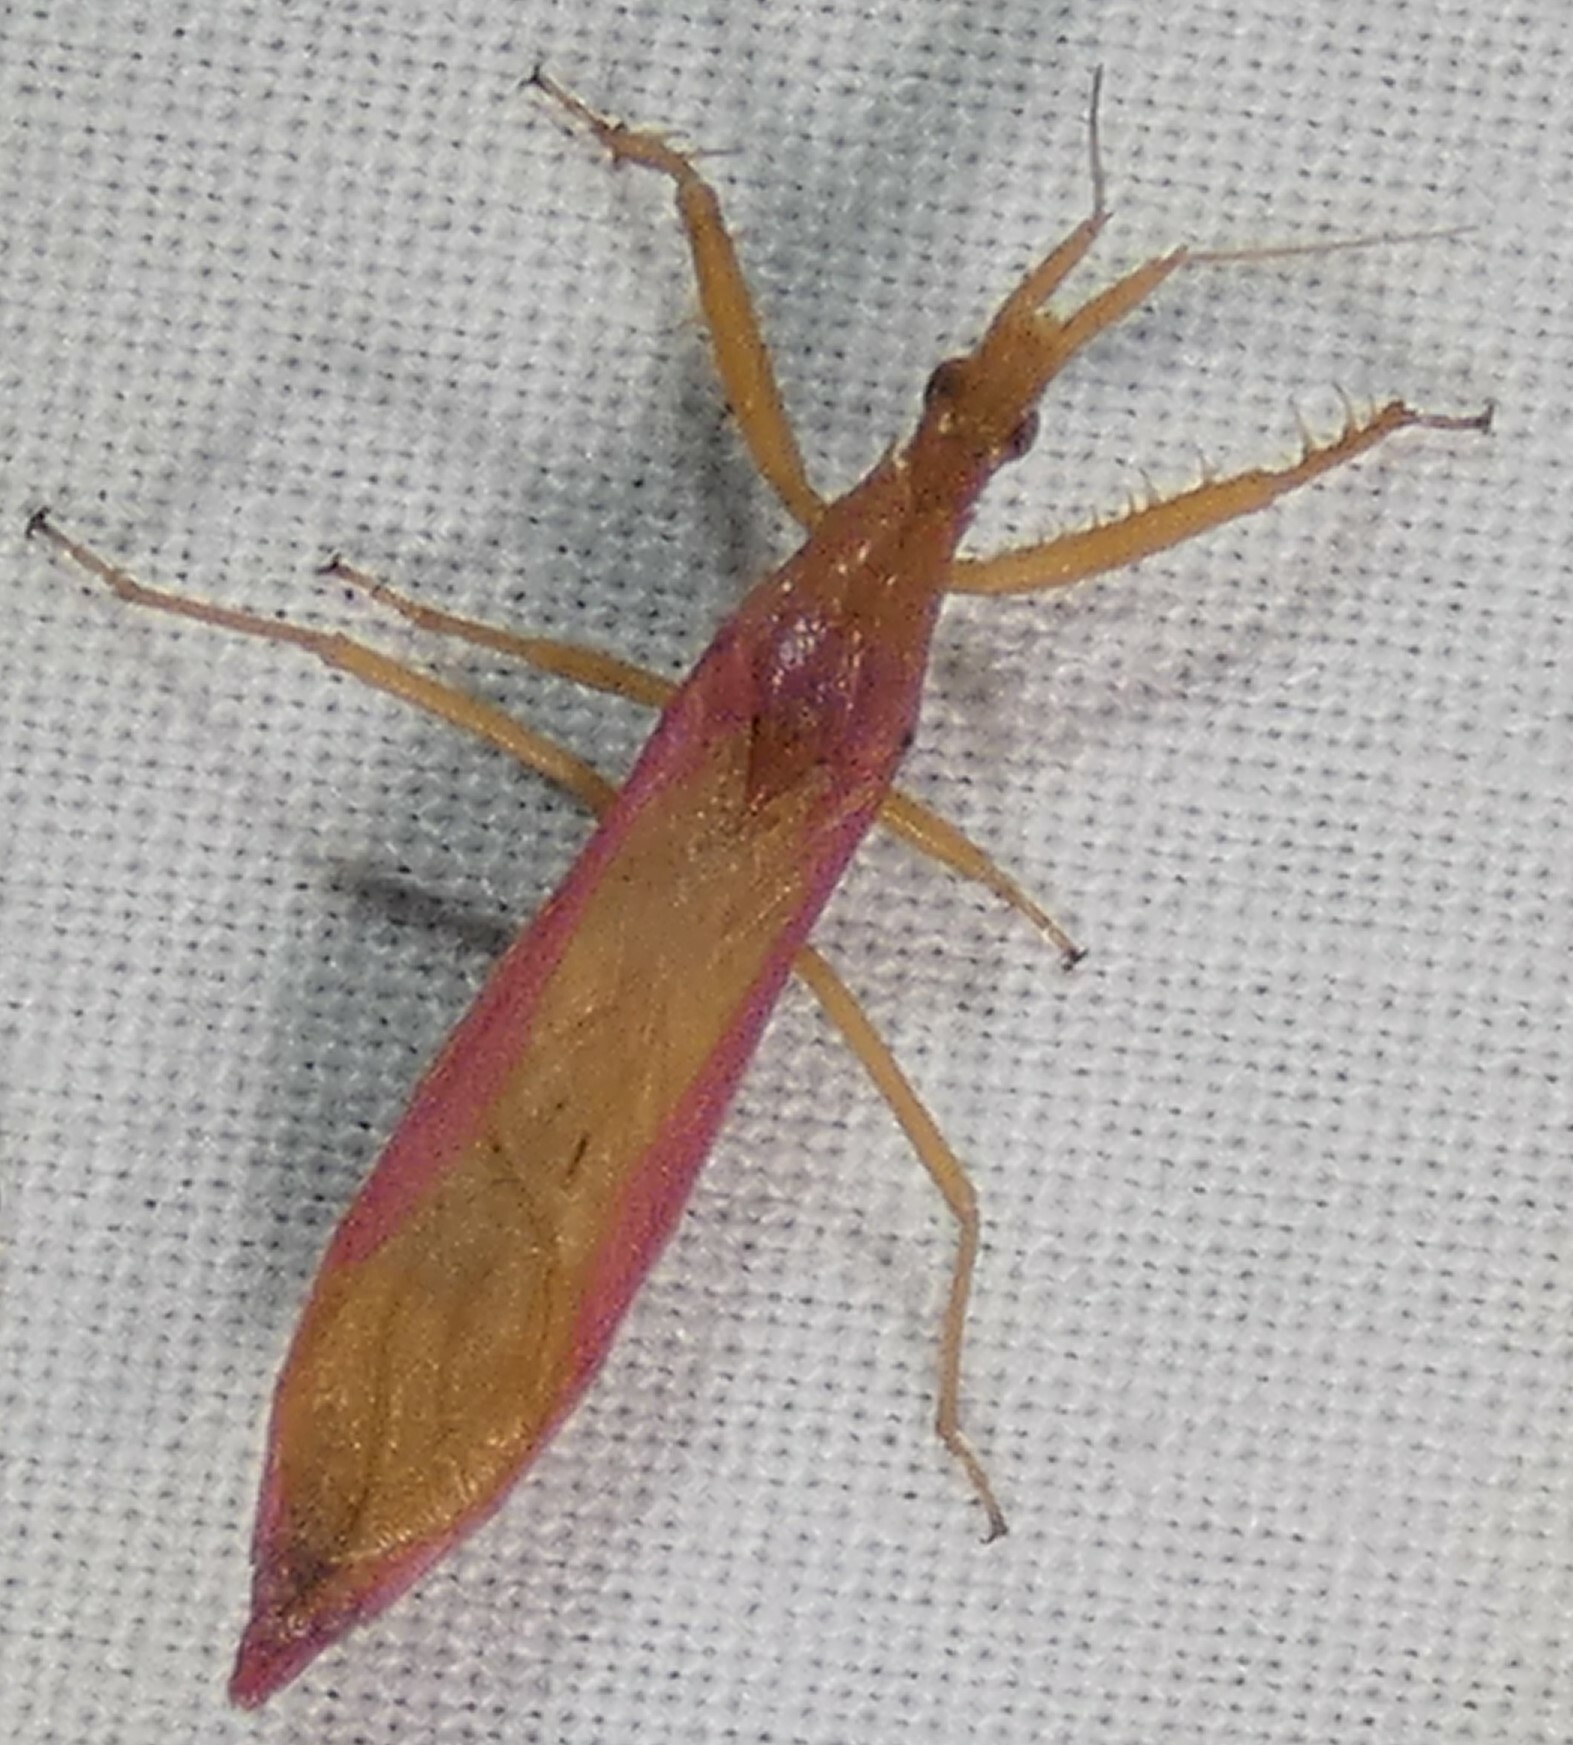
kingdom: Animalia
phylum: Arthropoda
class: Insecta
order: Hemiptera
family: Reduviidae
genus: Pnirontis
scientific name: Pnirontis languida
